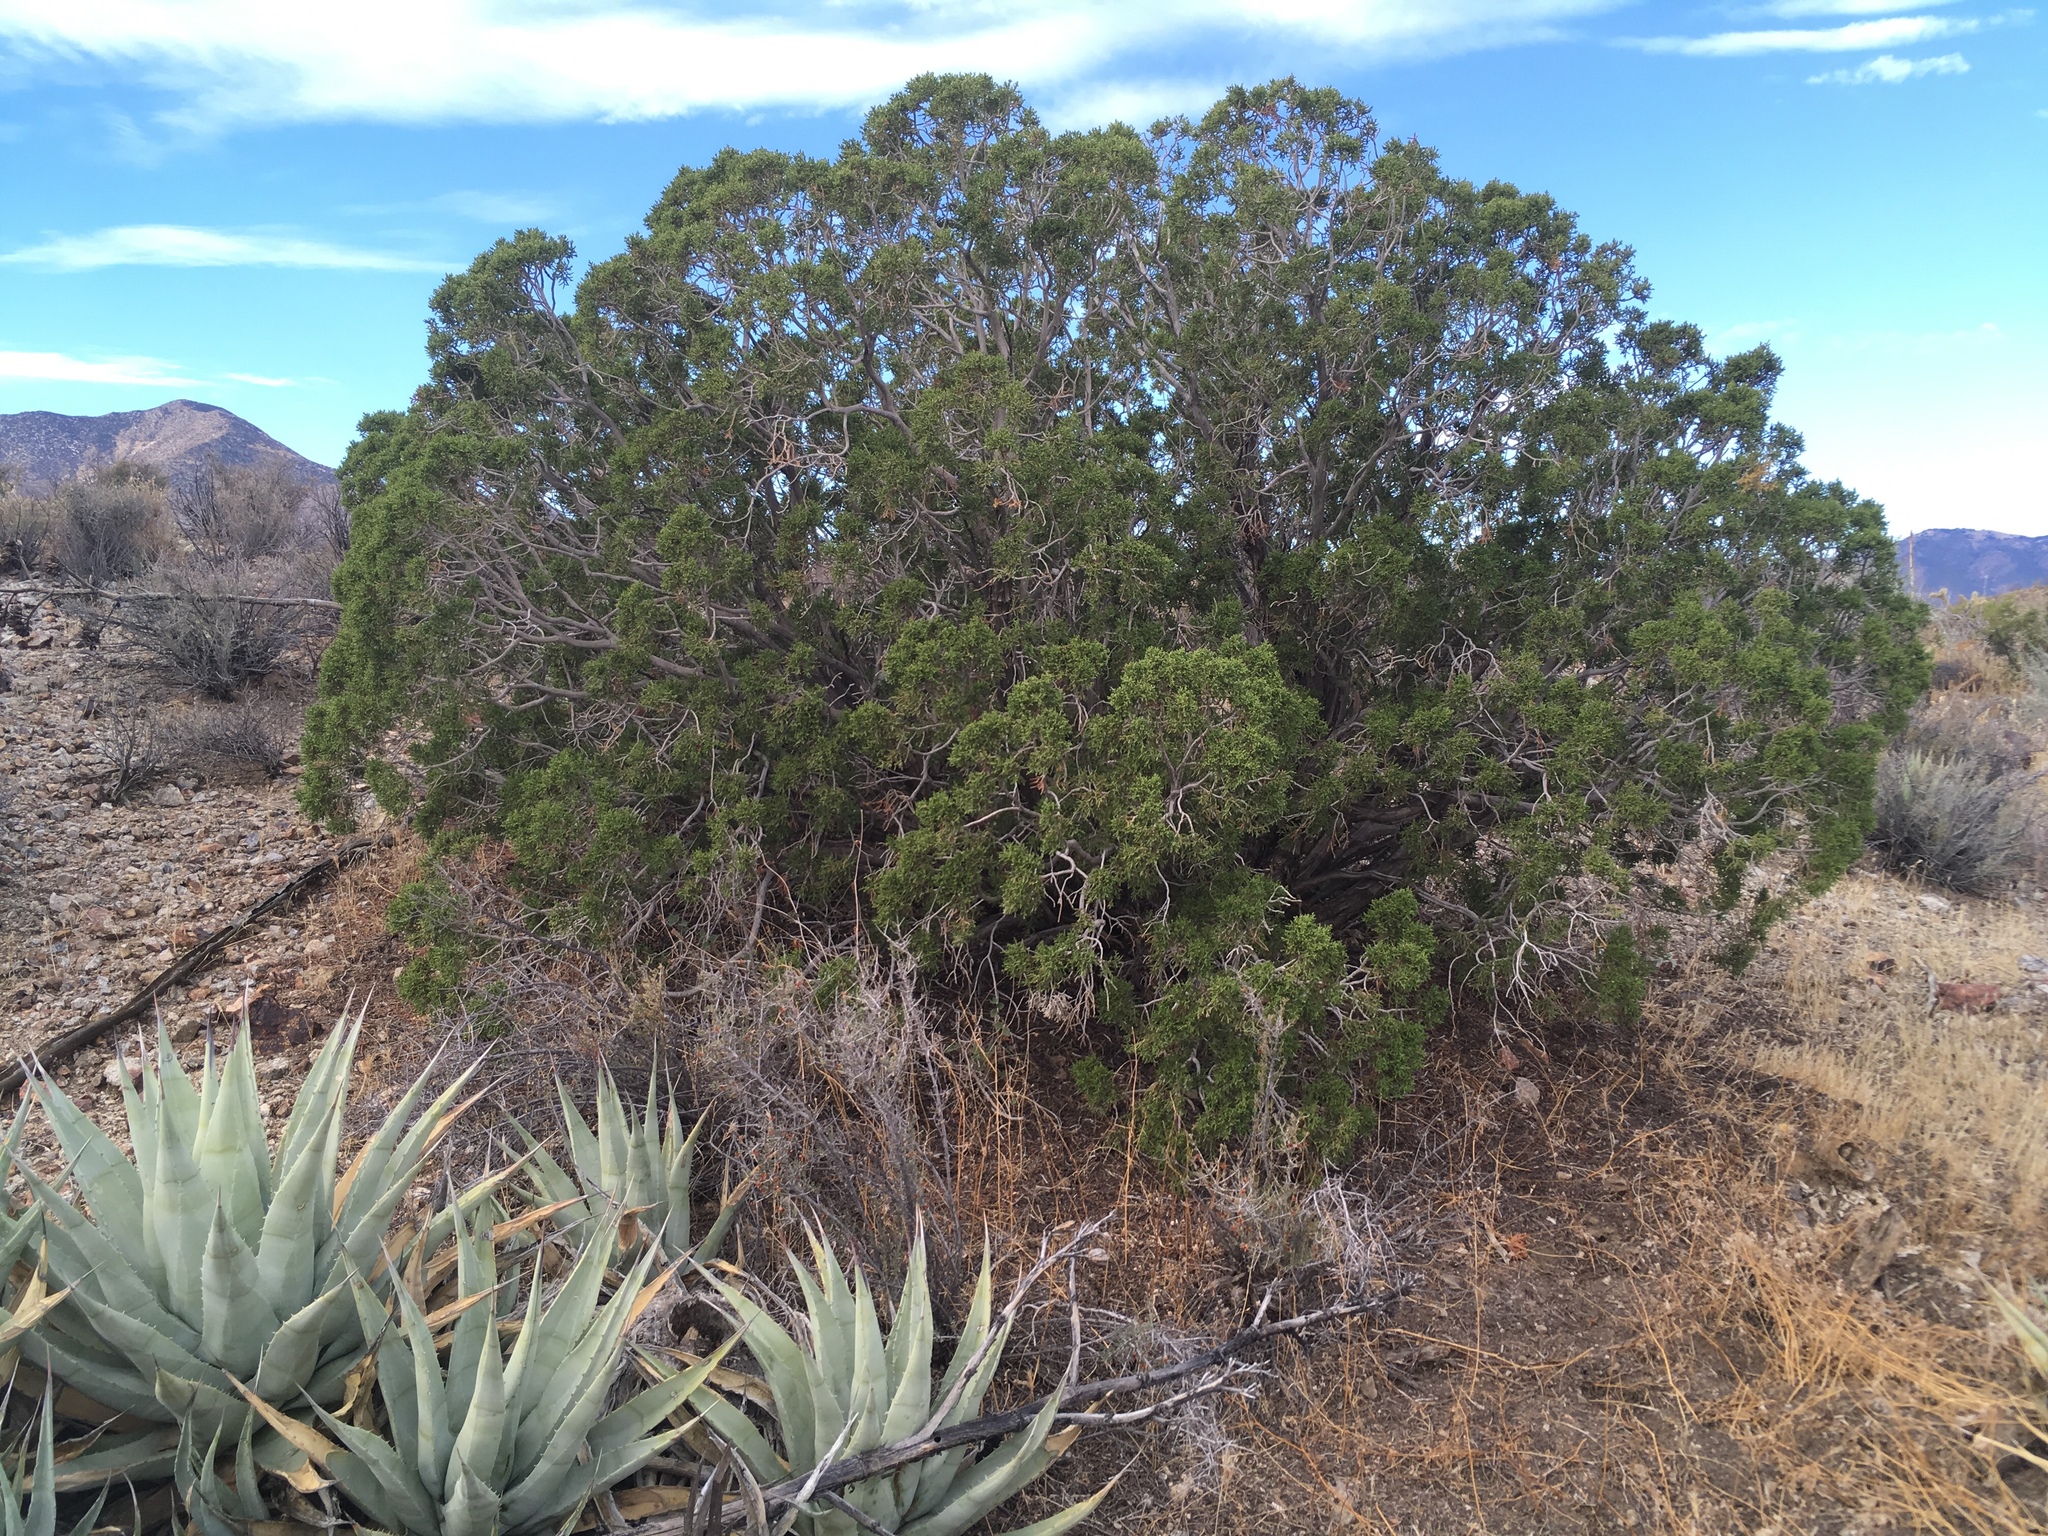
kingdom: Plantae
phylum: Tracheophyta
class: Pinopsida
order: Pinales
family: Cupressaceae
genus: Juniperus
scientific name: Juniperus californica
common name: California juniper
